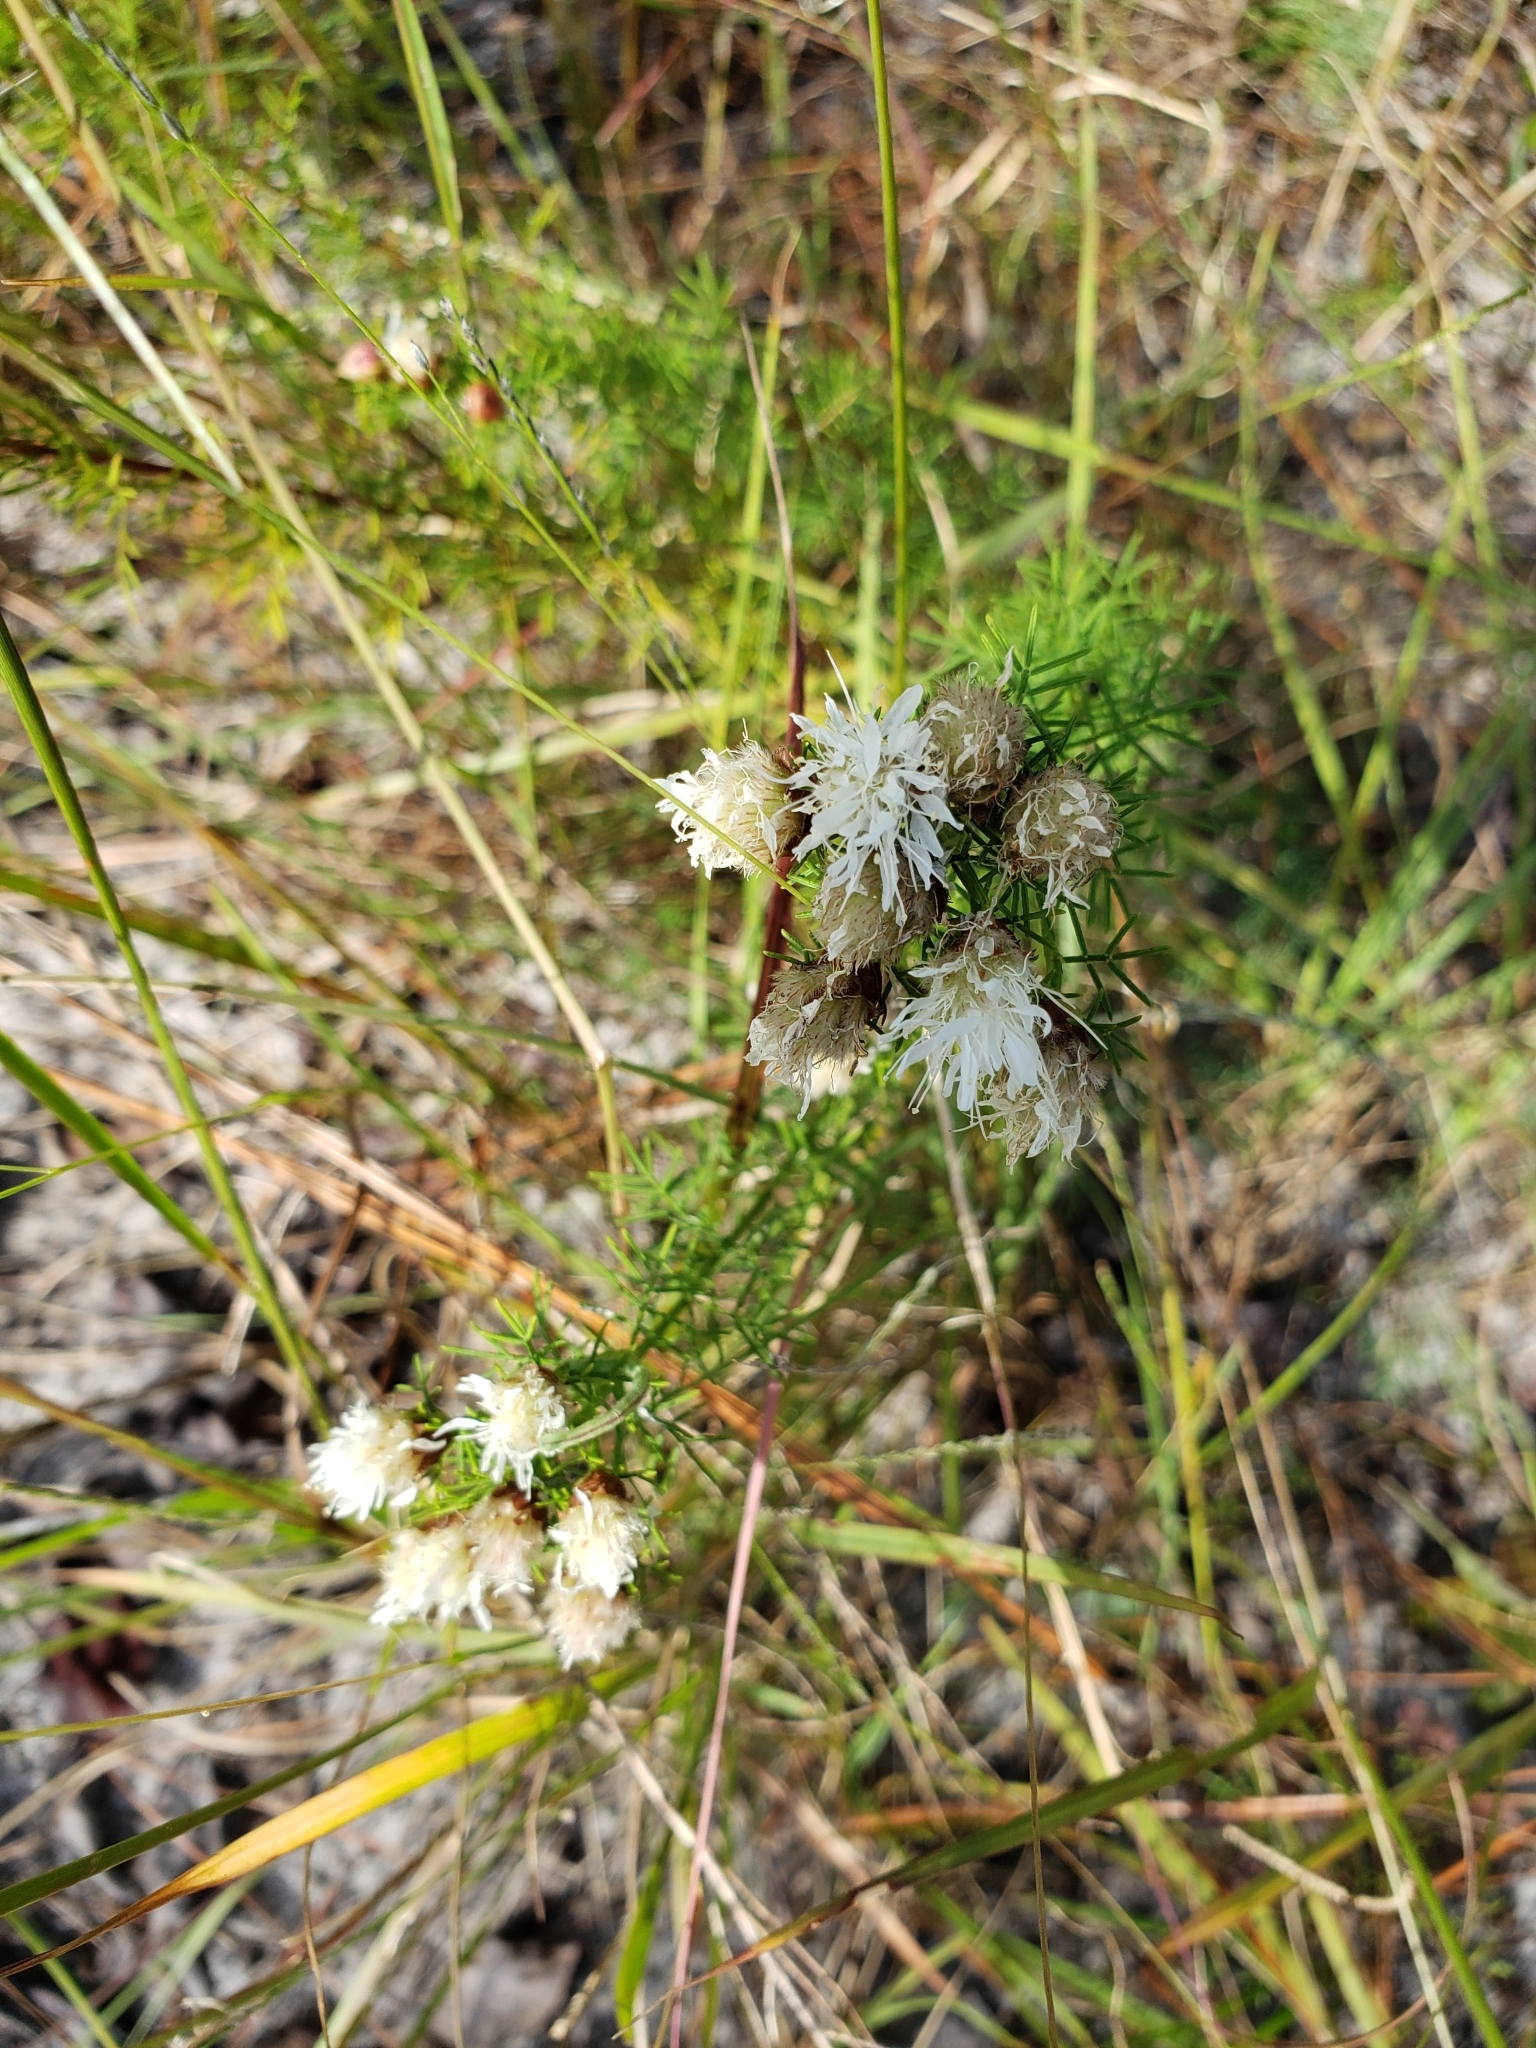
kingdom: Plantae
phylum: Tracheophyta
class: Magnoliopsida
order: Fabales
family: Fabaceae
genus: Dalea
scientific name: Dalea pinnata
